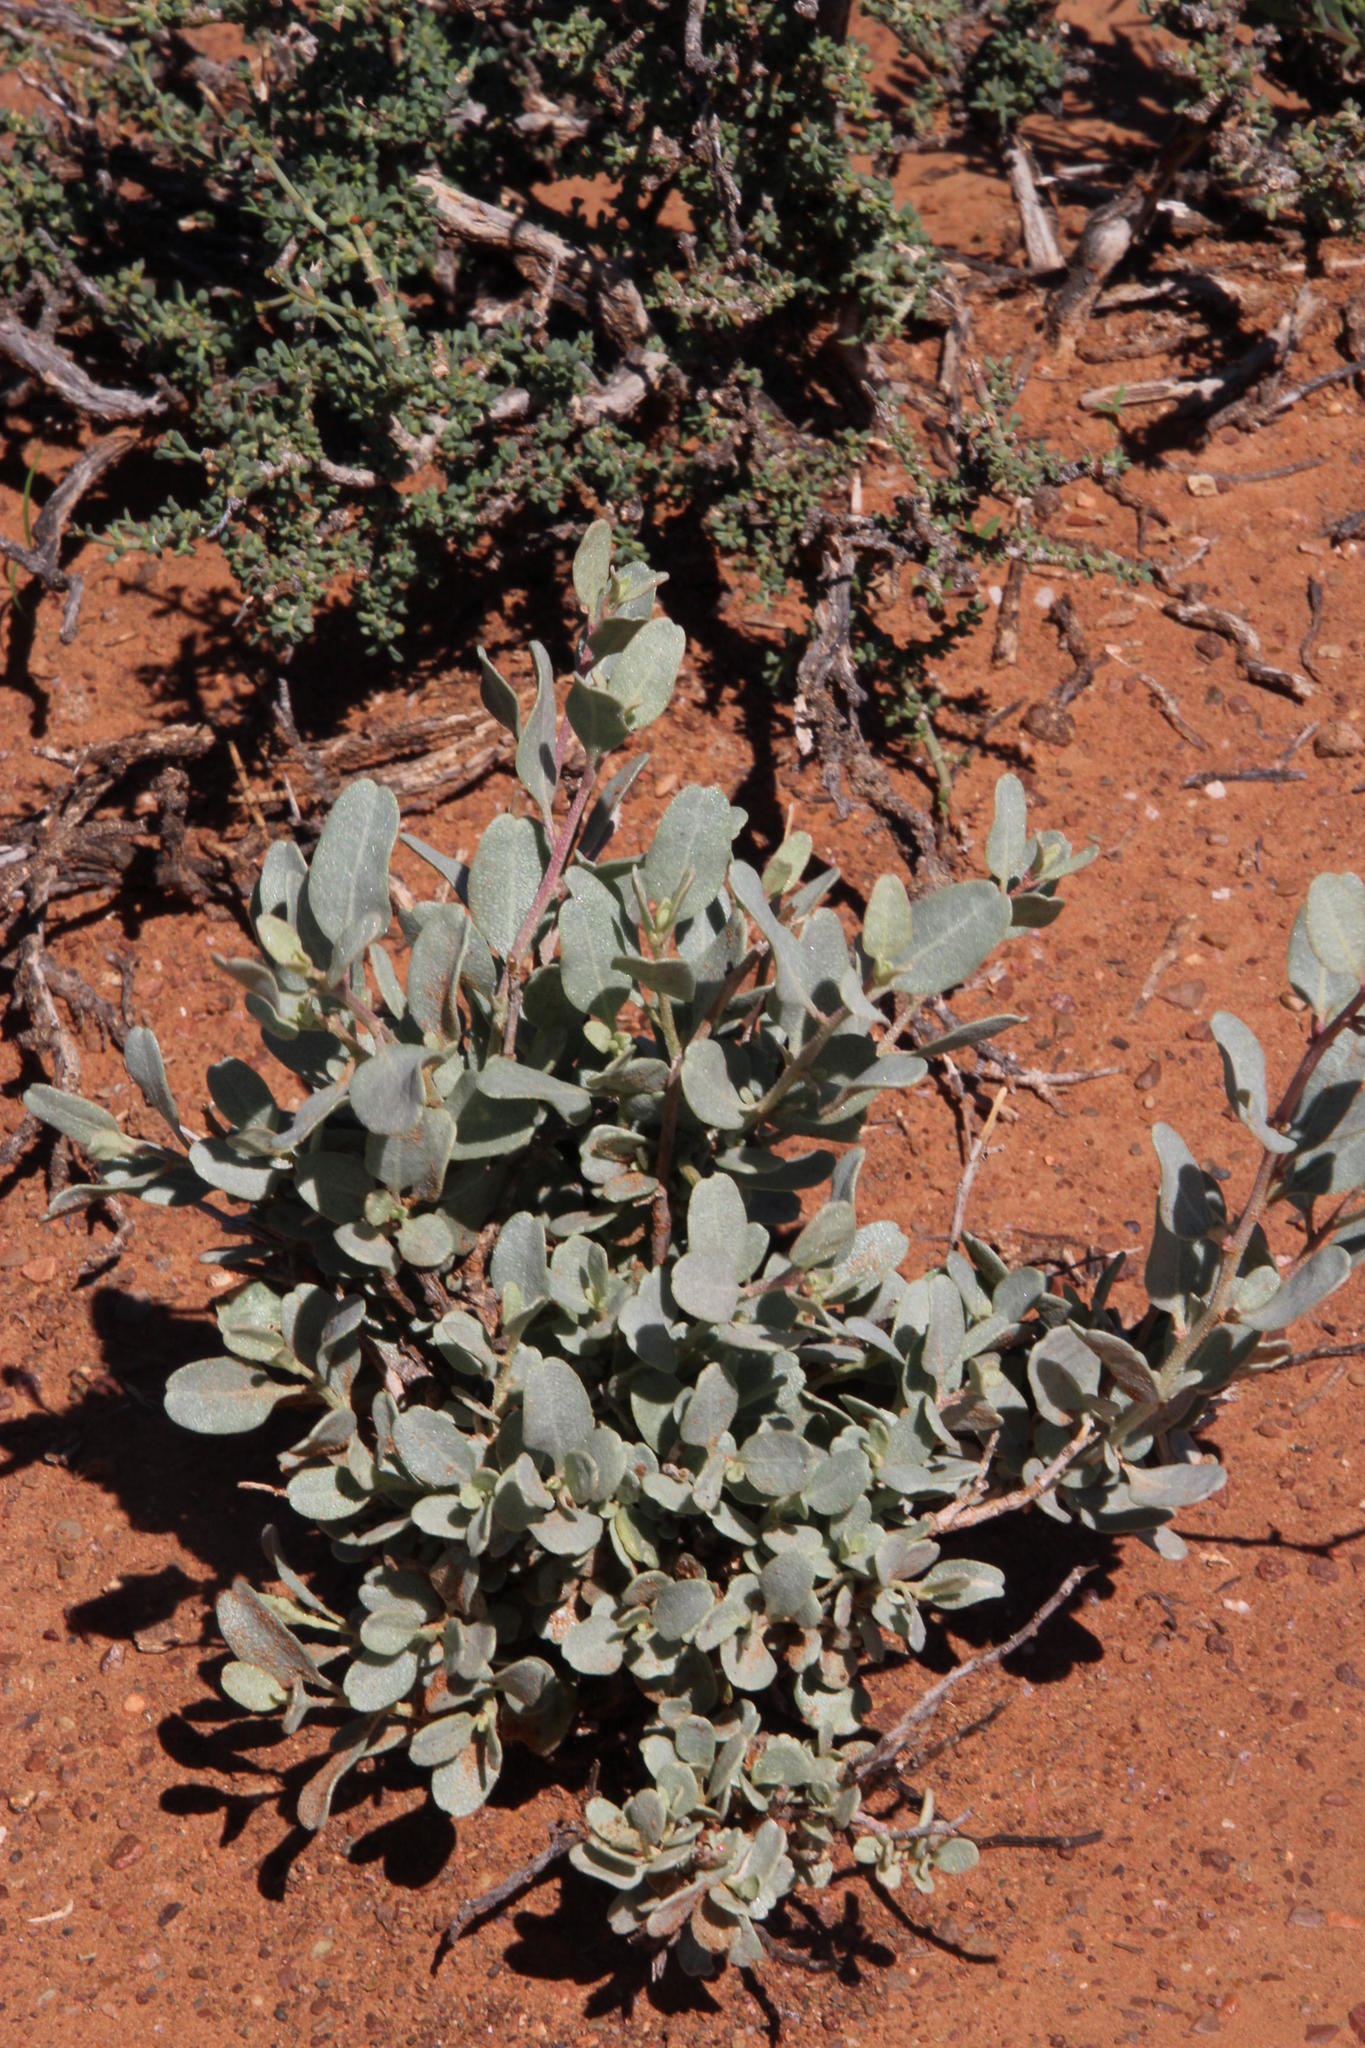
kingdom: Plantae
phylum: Tracheophyta
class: Magnoliopsida
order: Caryophyllales
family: Amaranthaceae
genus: Atriplex
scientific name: Atriplex vestita
